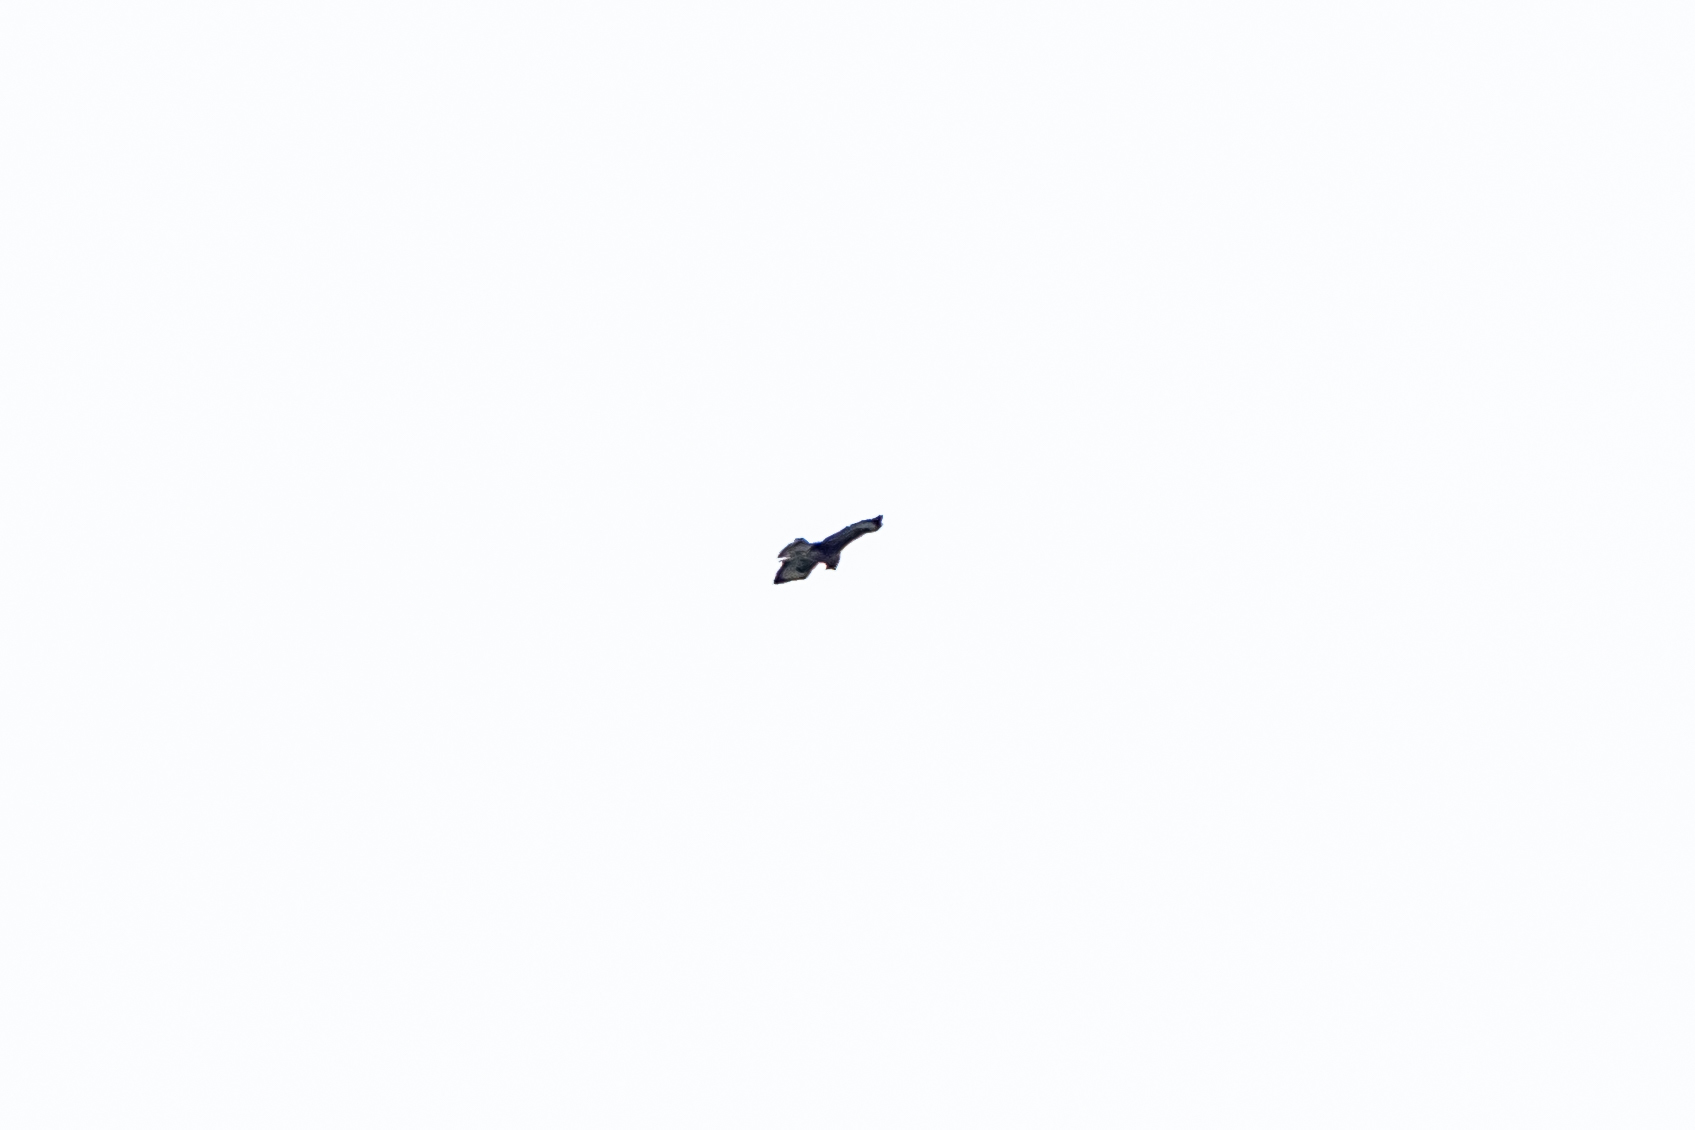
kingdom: Animalia
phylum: Chordata
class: Aves
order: Accipitriformes
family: Accipitridae
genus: Buteo
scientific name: Buteo buteo
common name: Common buzzard
